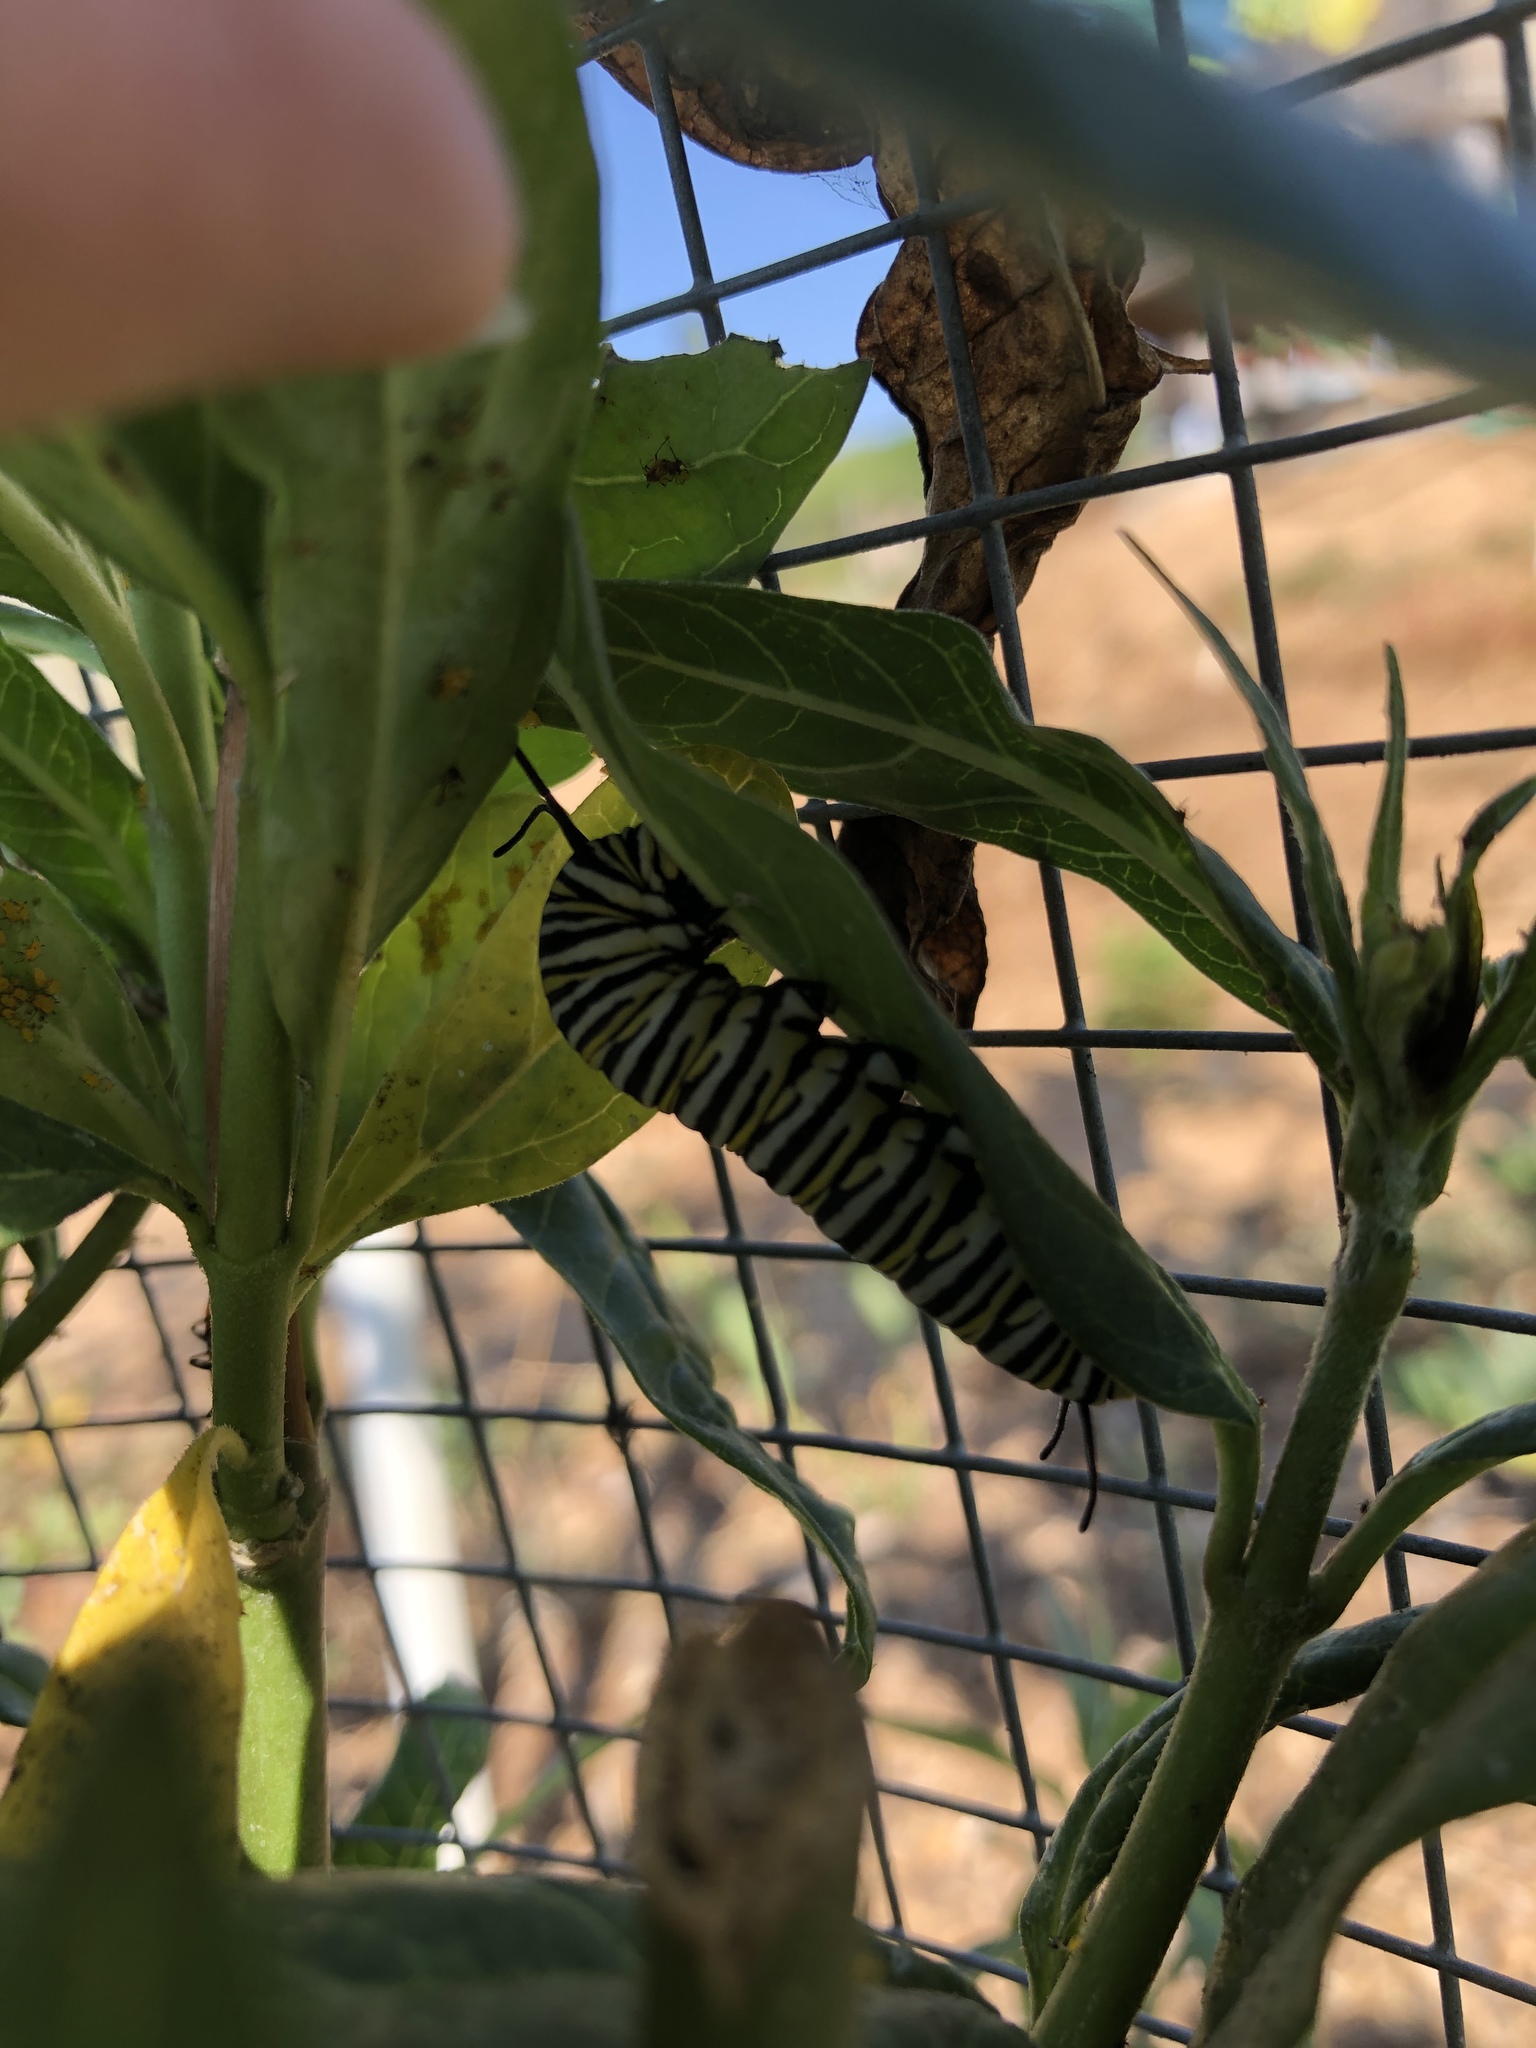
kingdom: Animalia
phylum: Arthropoda
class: Insecta
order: Lepidoptera
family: Nymphalidae
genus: Danaus
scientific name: Danaus plexippus
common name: Monarch
